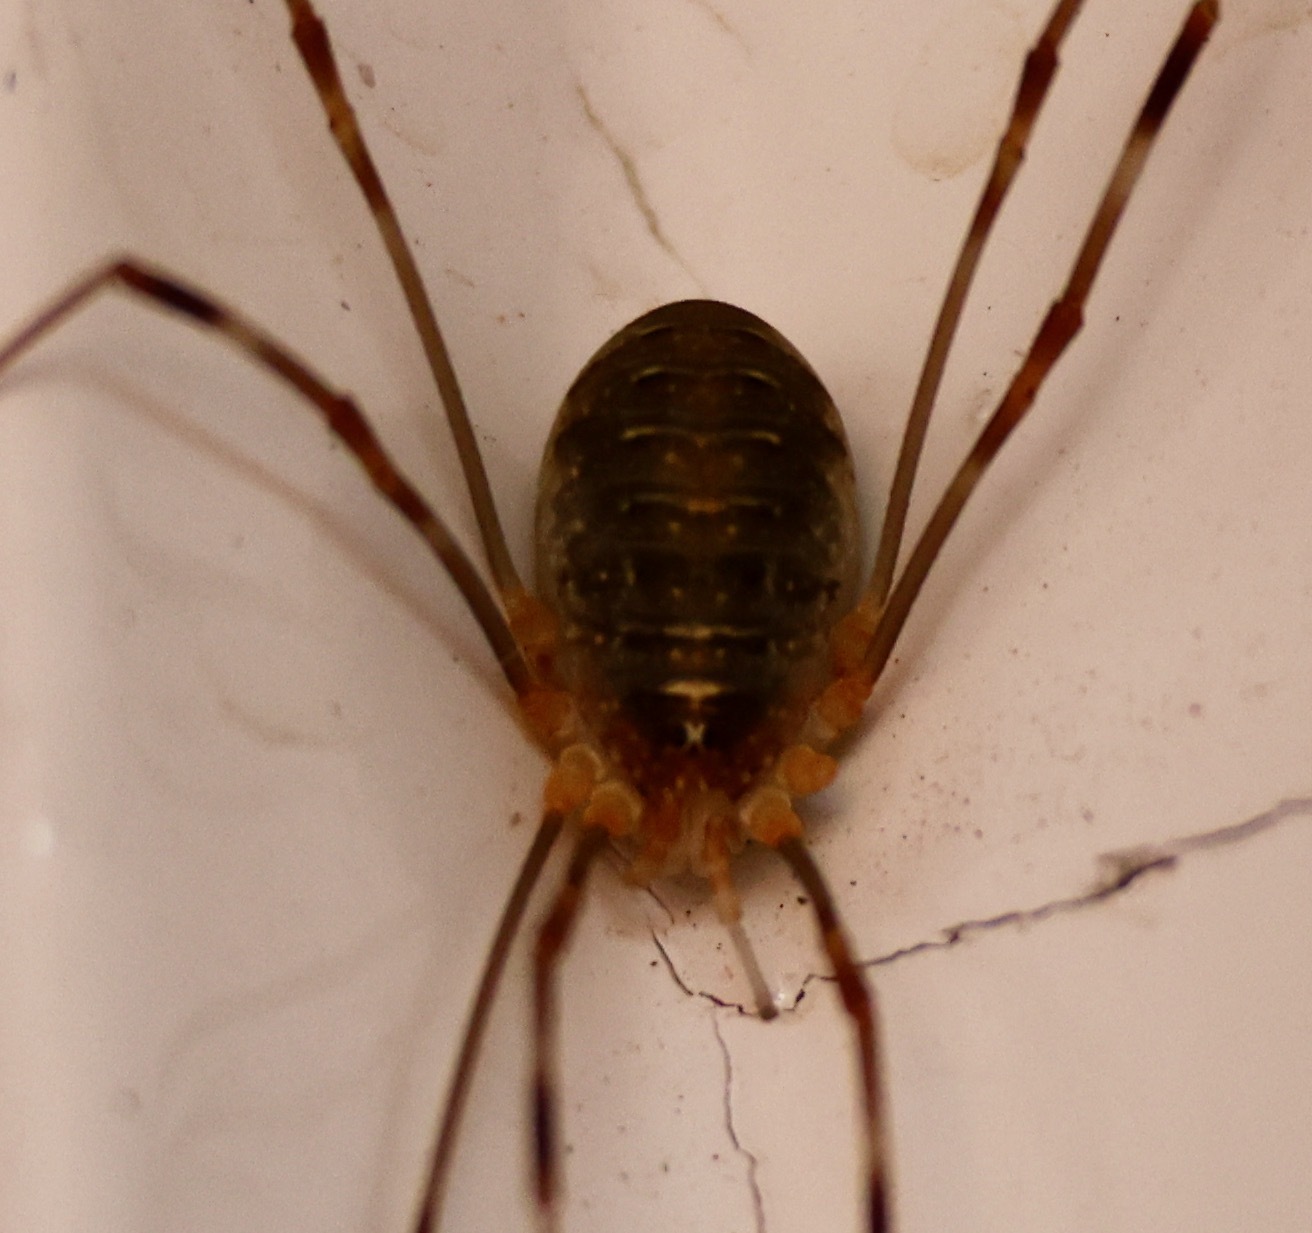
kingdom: Animalia
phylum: Arthropoda
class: Arachnida
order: Opiliones
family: Phalangiidae
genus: Opilio
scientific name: Opilio canestrinii
